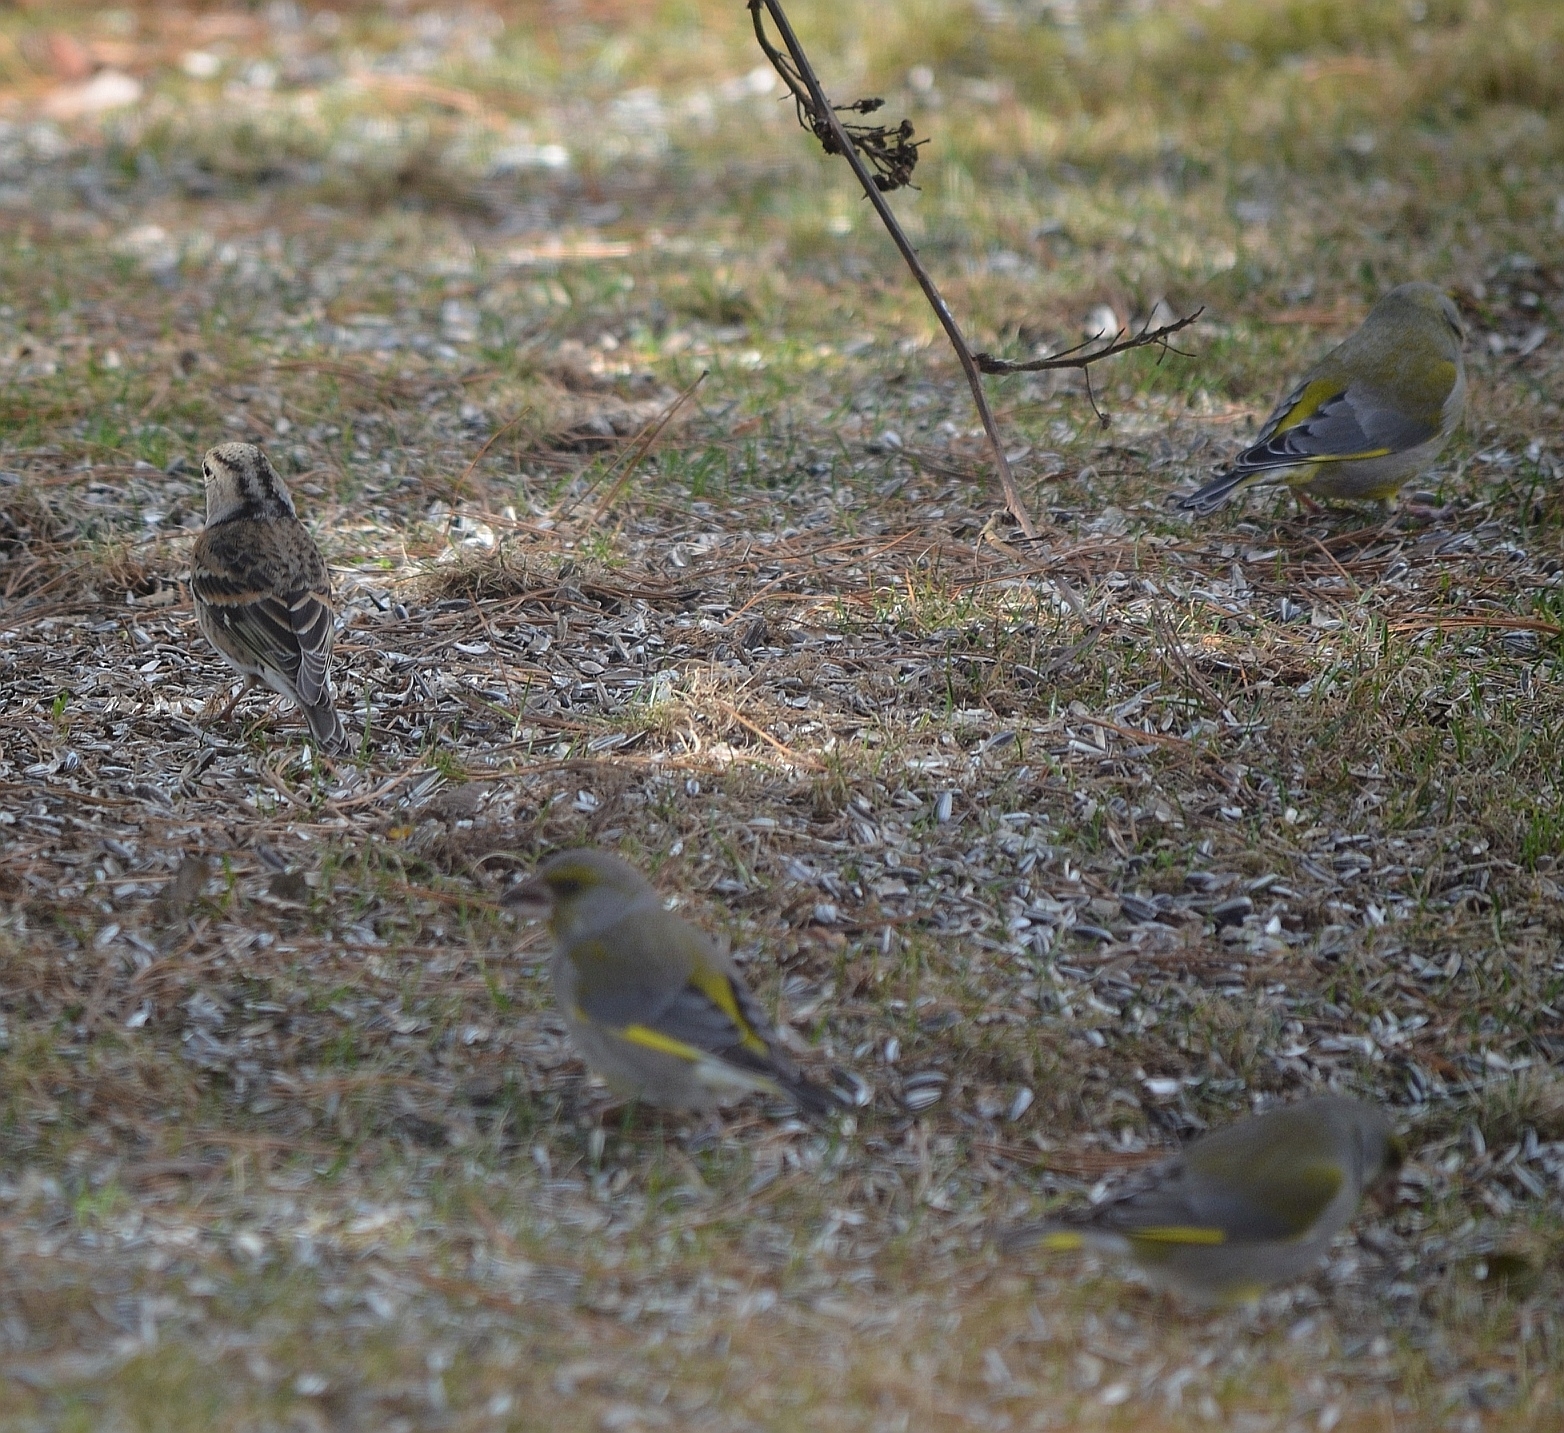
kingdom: Plantae
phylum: Tracheophyta
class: Liliopsida
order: Poales
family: Poaceae
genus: Chloris
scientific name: Chloris chloris
